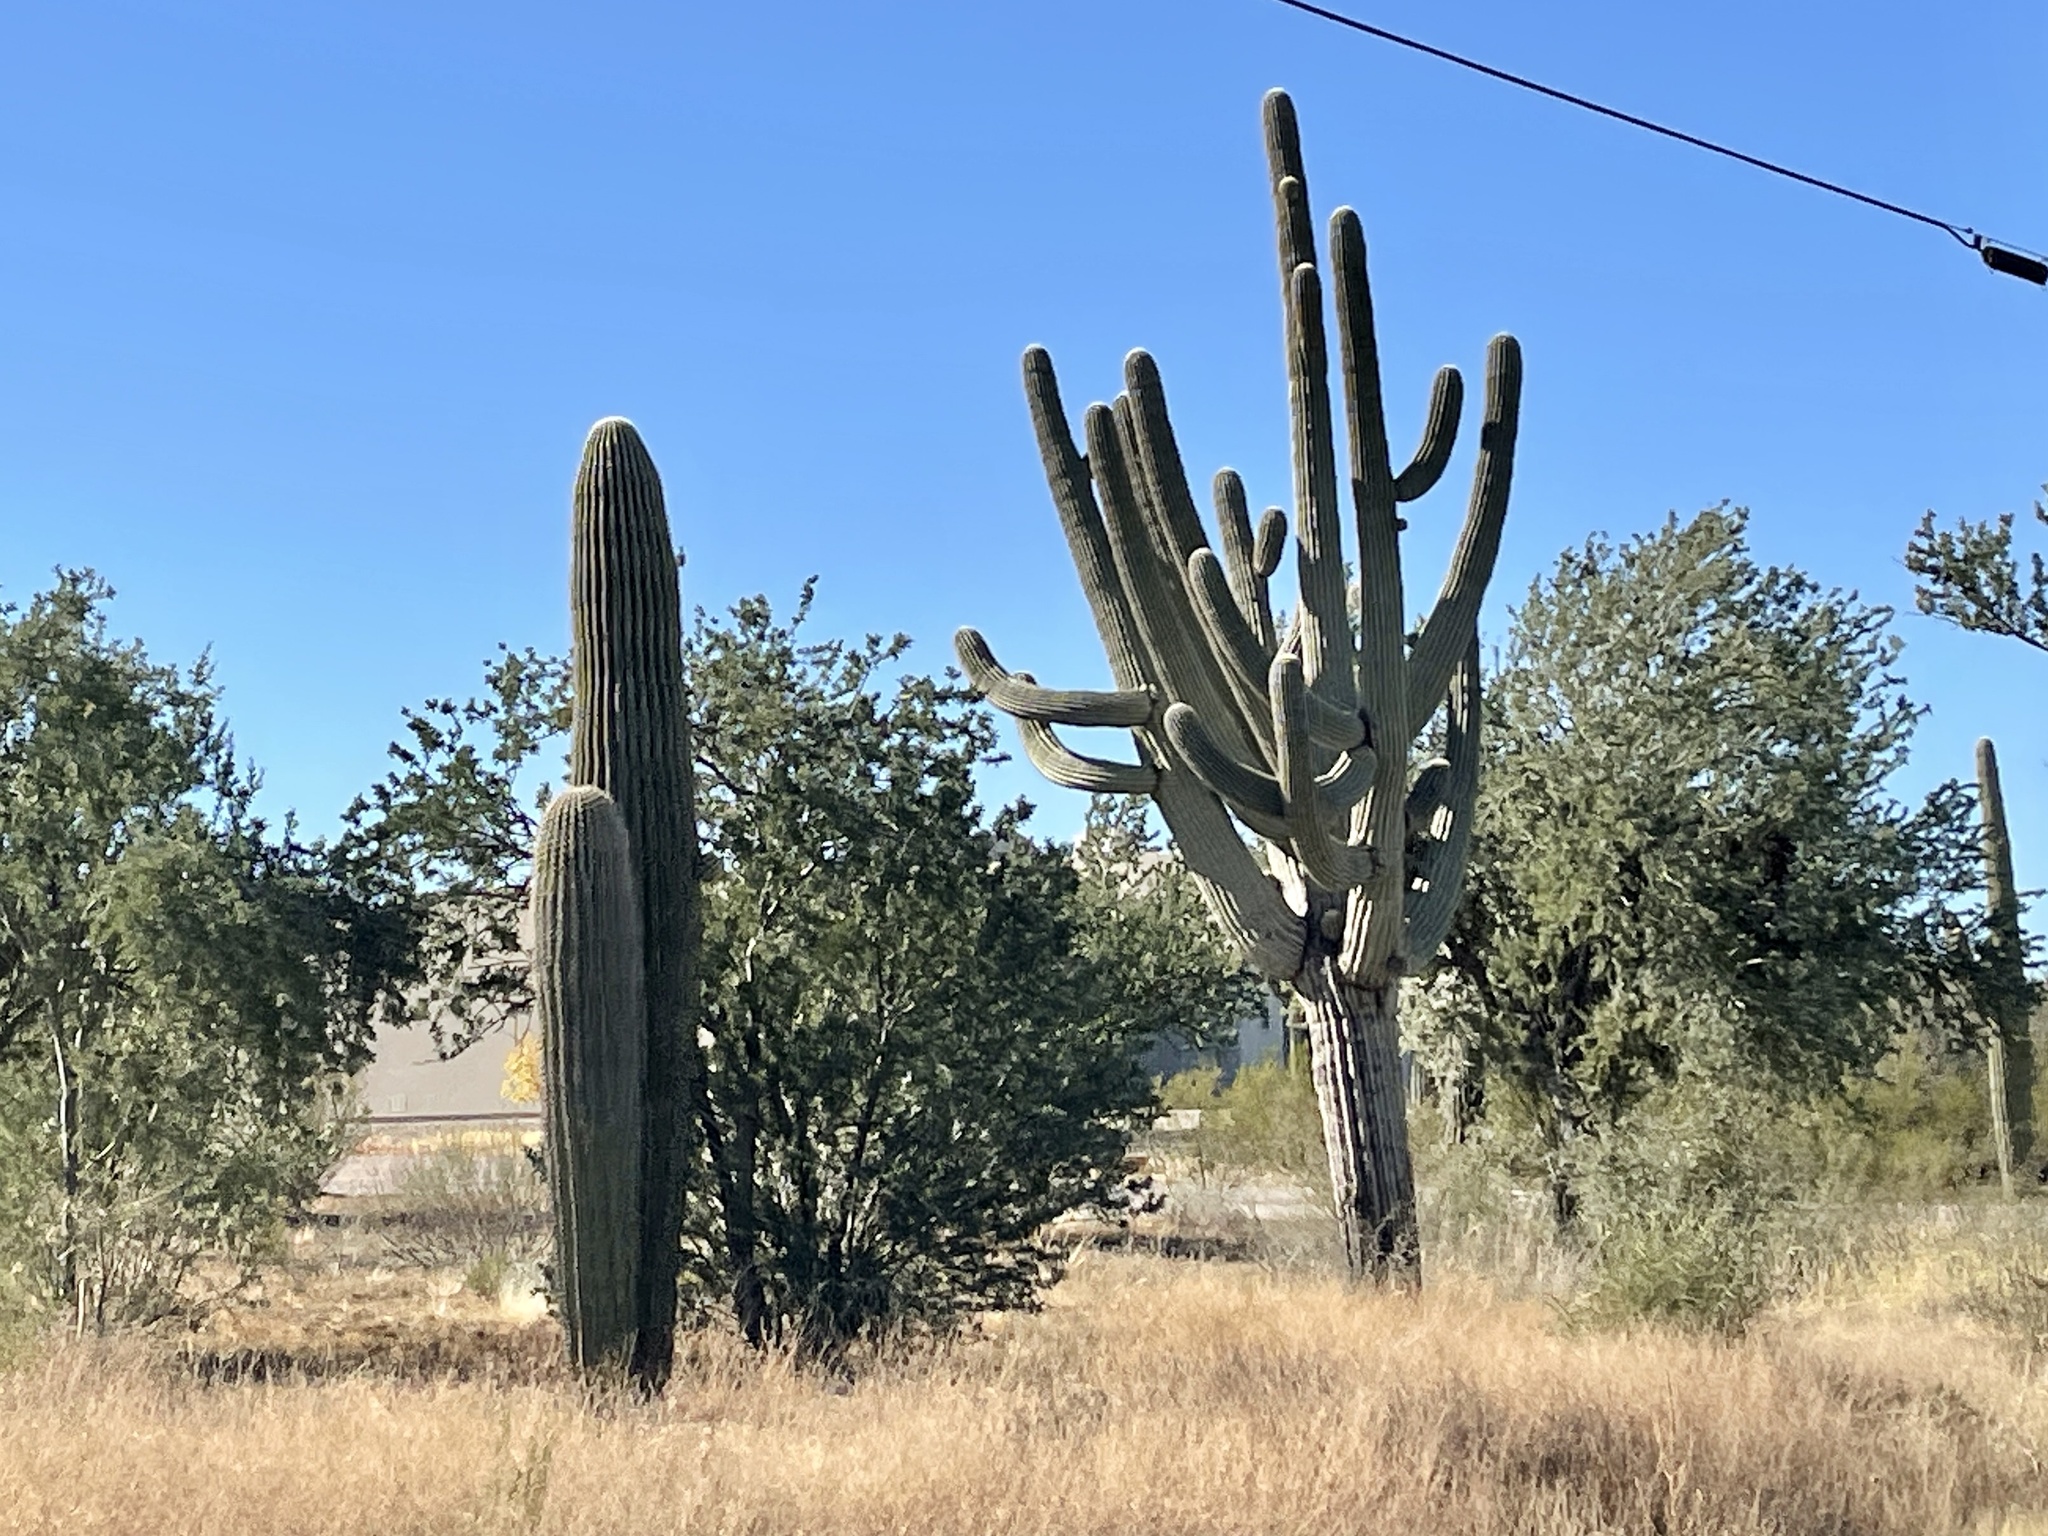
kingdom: Plantae
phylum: Tracheophyta
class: Magnoliopsida
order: Caryophyllales
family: Cactaceae
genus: Carnegiea
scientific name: Carnegiea gigantea
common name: Saguaro
